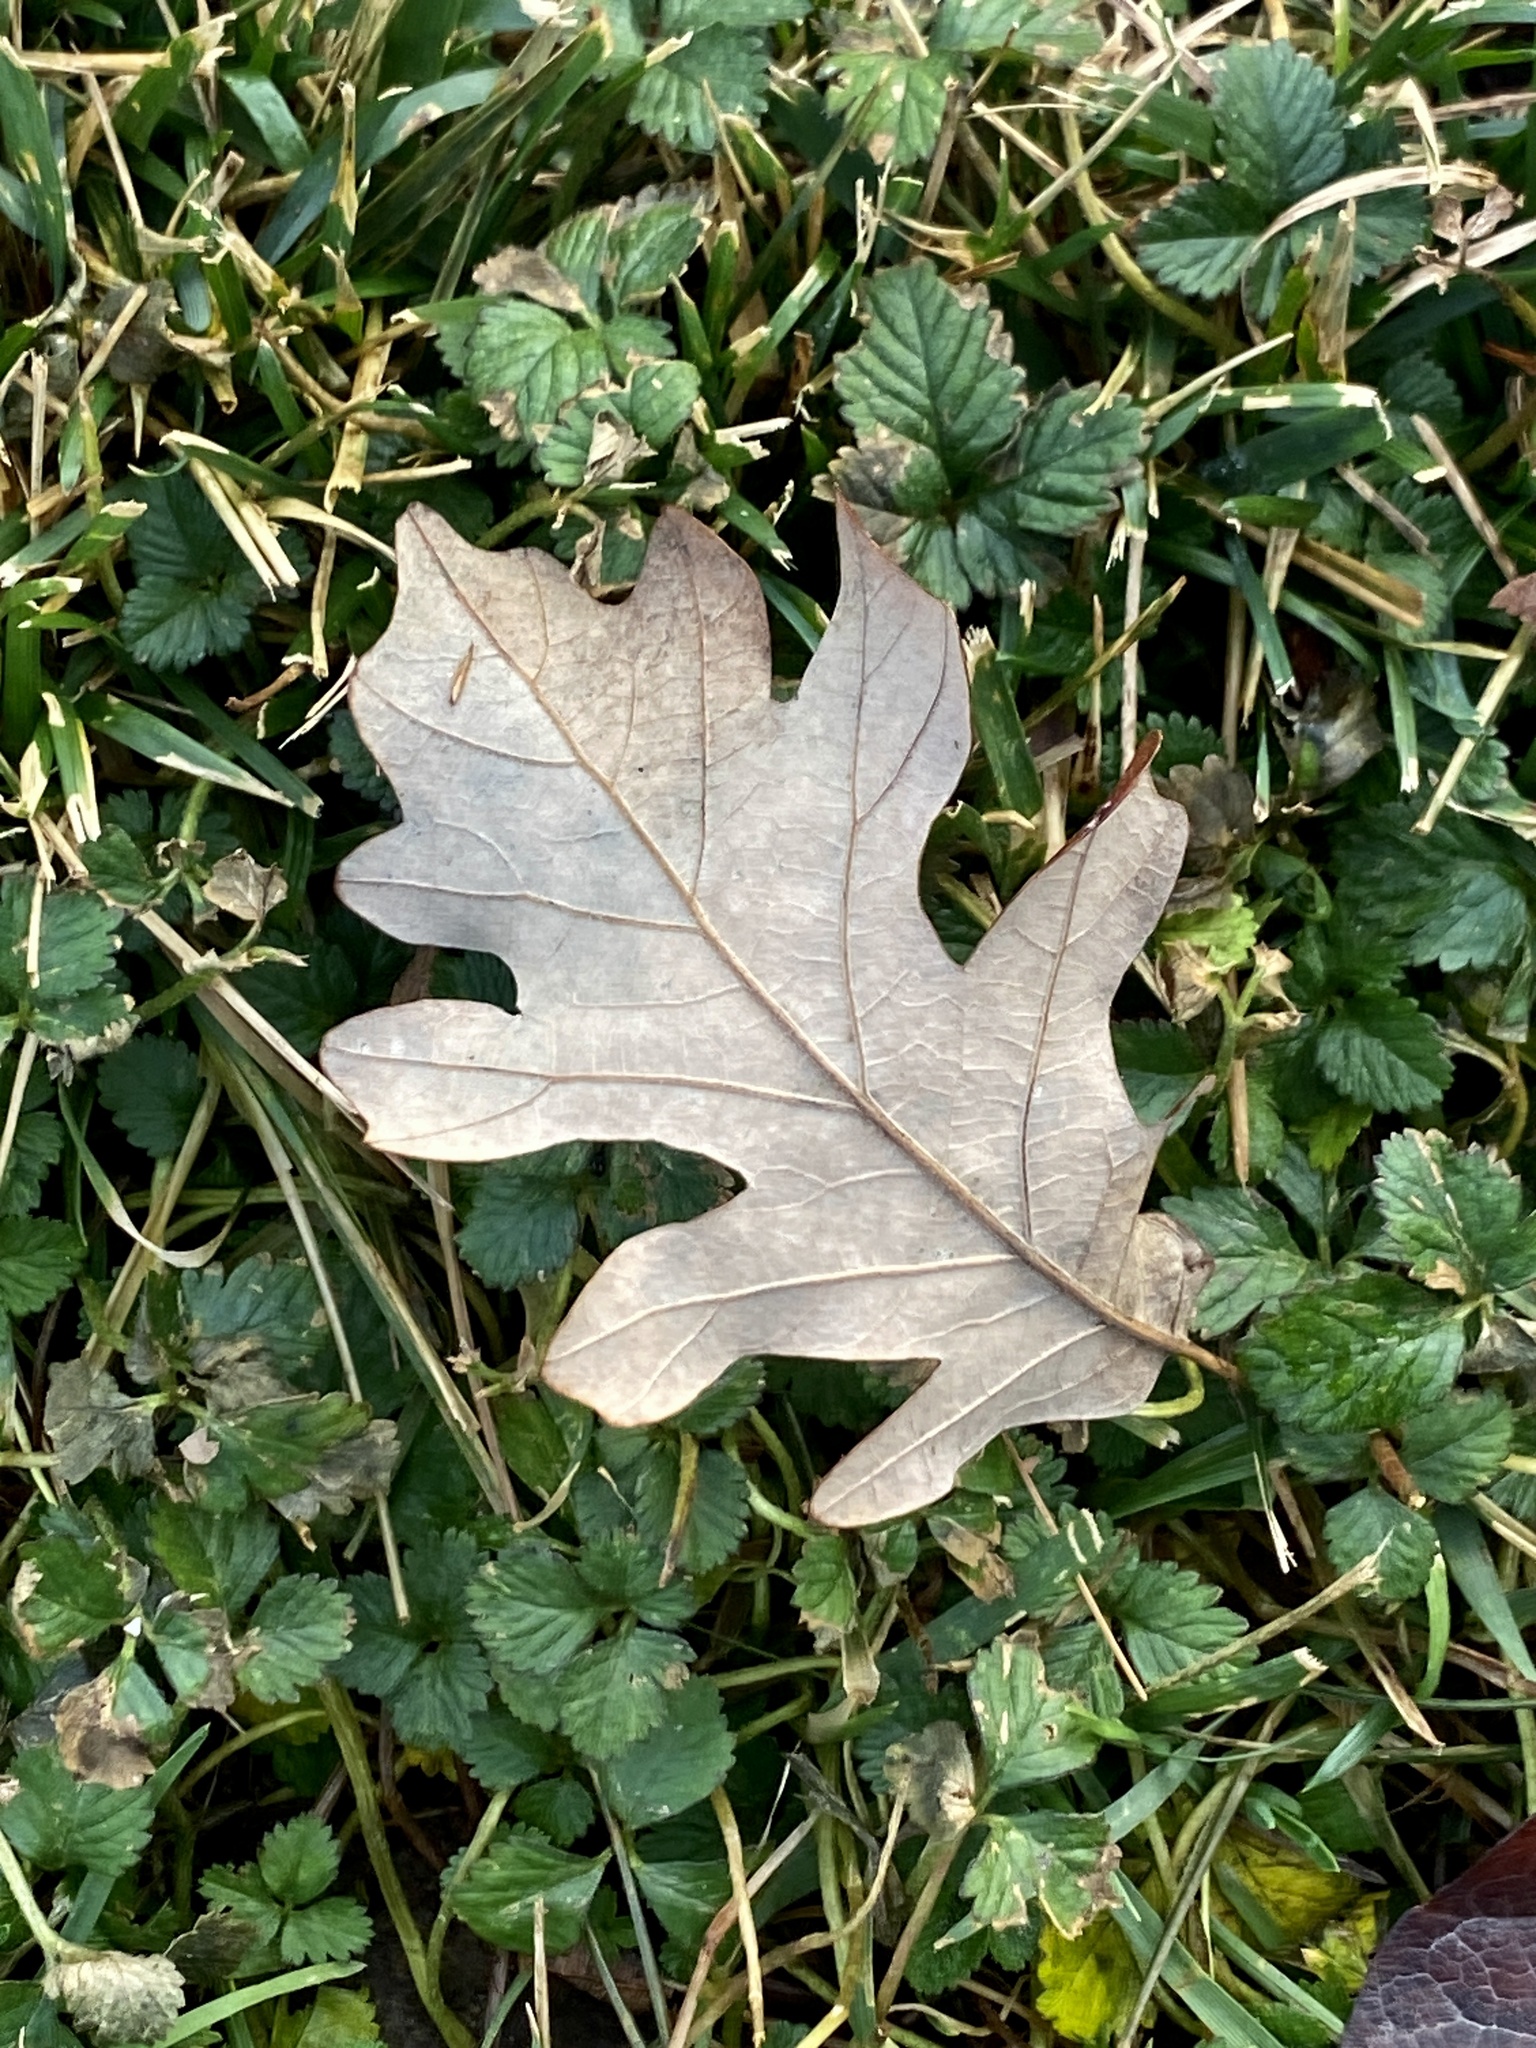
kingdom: Plantae
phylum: Tracheophyta
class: Magnoliopsida
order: Fagales
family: Fagaceae
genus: Quercus
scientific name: Quercus alba
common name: White oak
